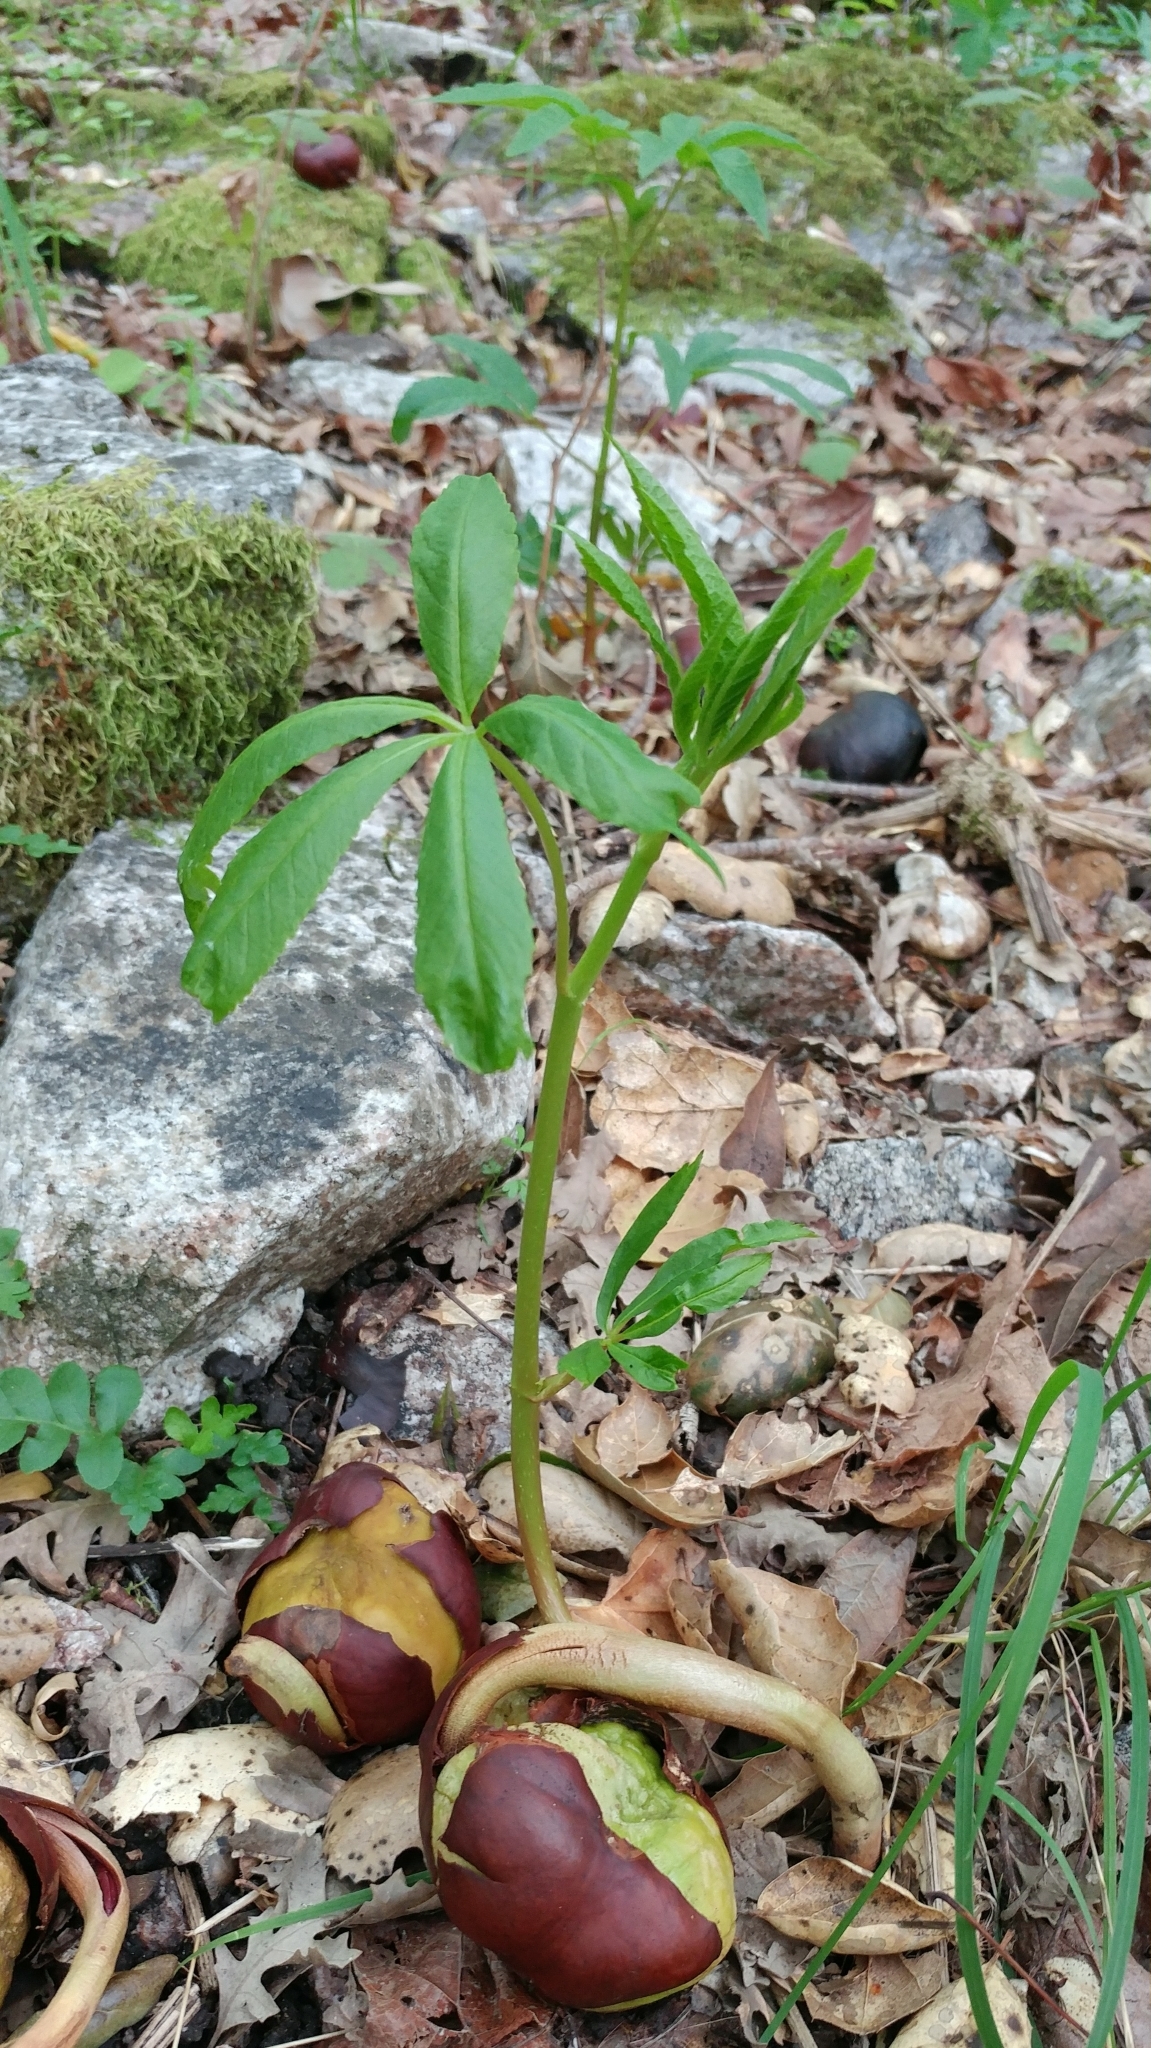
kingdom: Plantae
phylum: Tracheophyta
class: Magnoliopsida
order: Sapindales
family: Sapindaceae
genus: Aesculus
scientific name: Aesculus californica
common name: California buckeye
